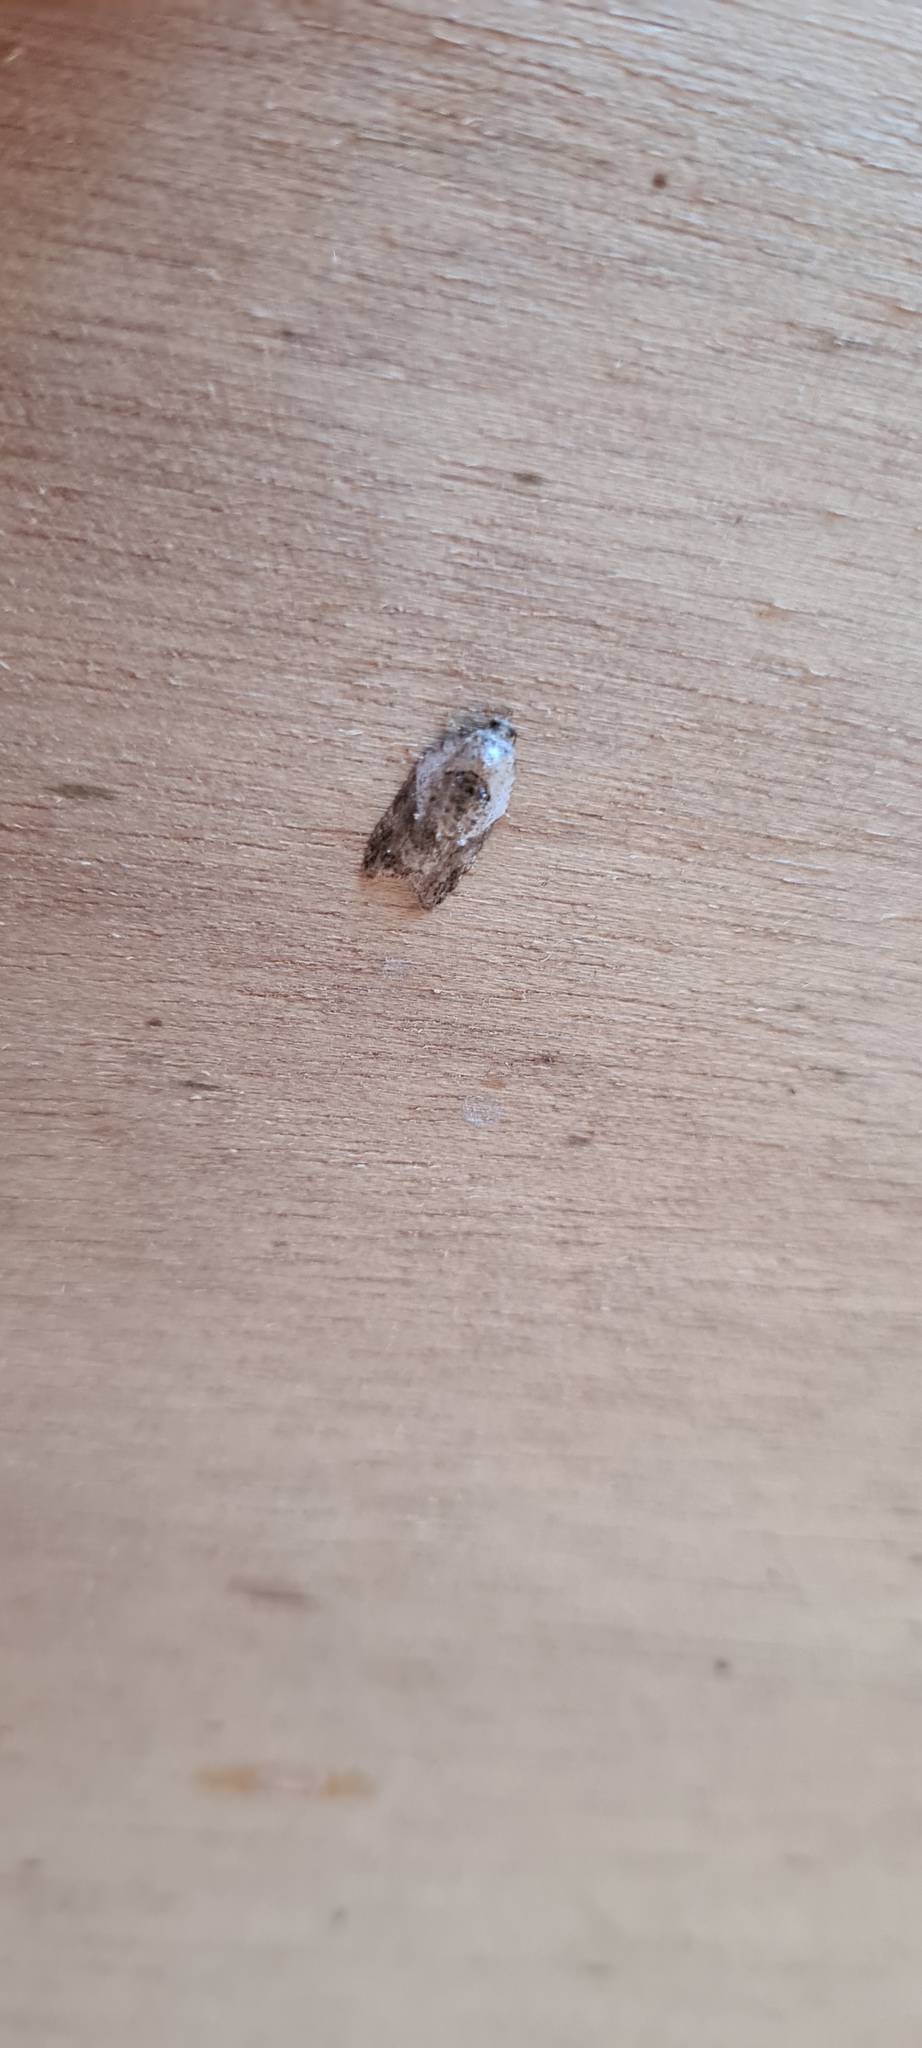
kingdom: Animalia
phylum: Arthropoda
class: Insecta
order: Lepidoptera
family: Tortricidae
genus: Acleris
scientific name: Acleris variegana
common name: Garden rose tortrix
